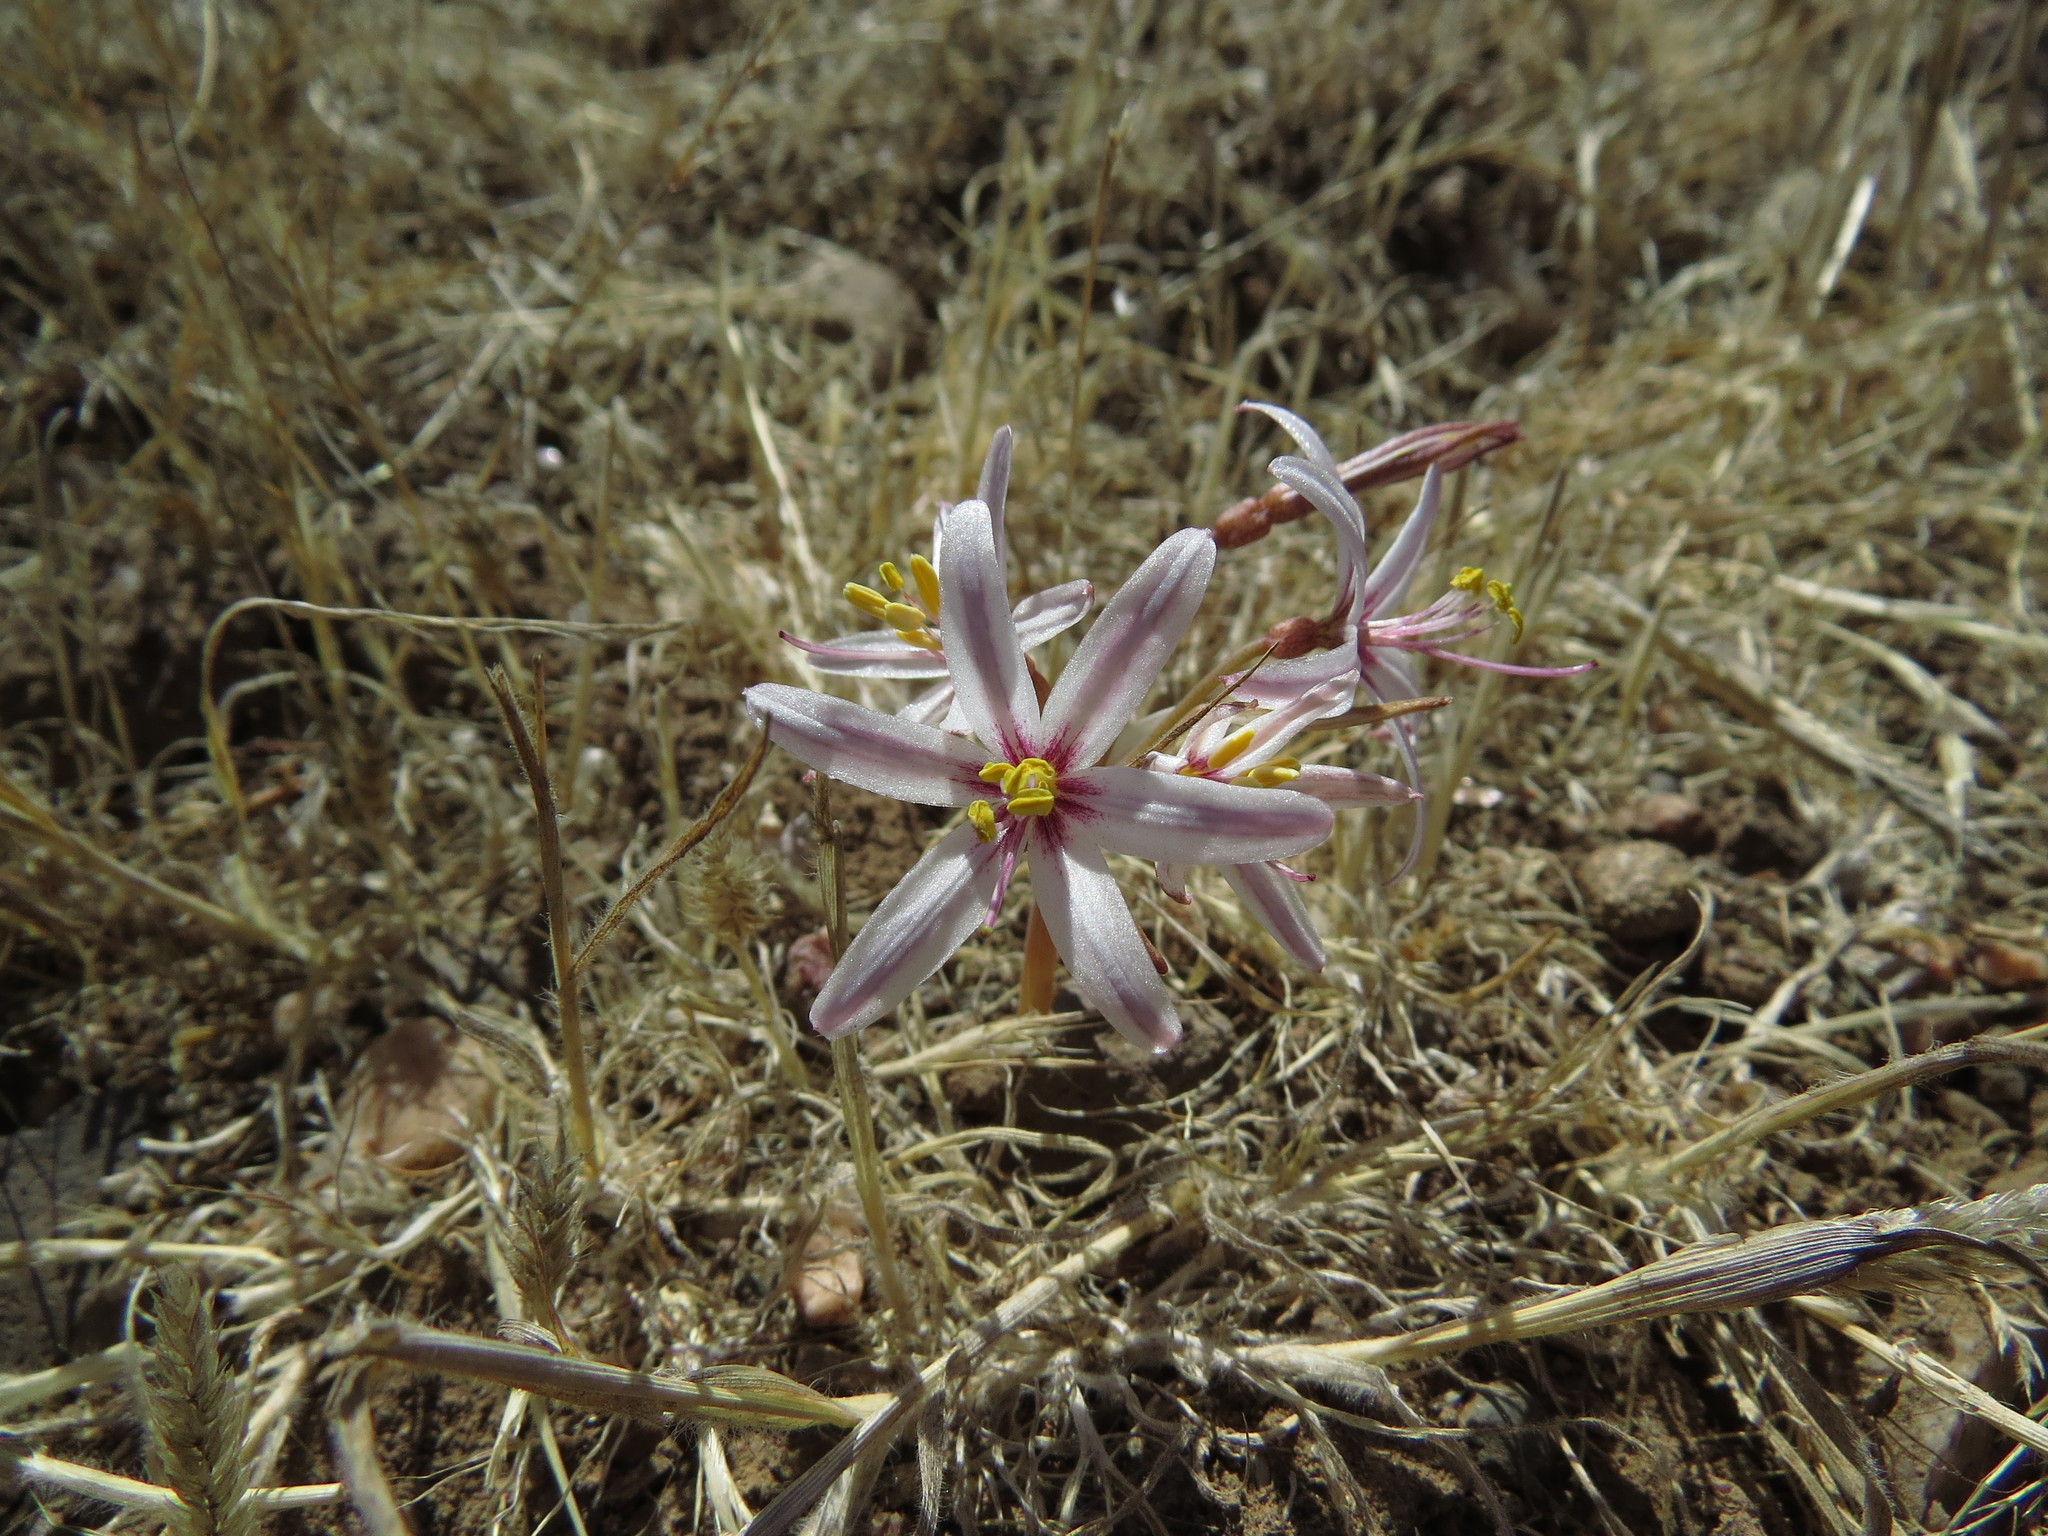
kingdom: Plantae
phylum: Tracheophyta
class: Liliopsida
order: Asparagales
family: Amaryllidaceae
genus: Traubia
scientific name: Traubia modesta
